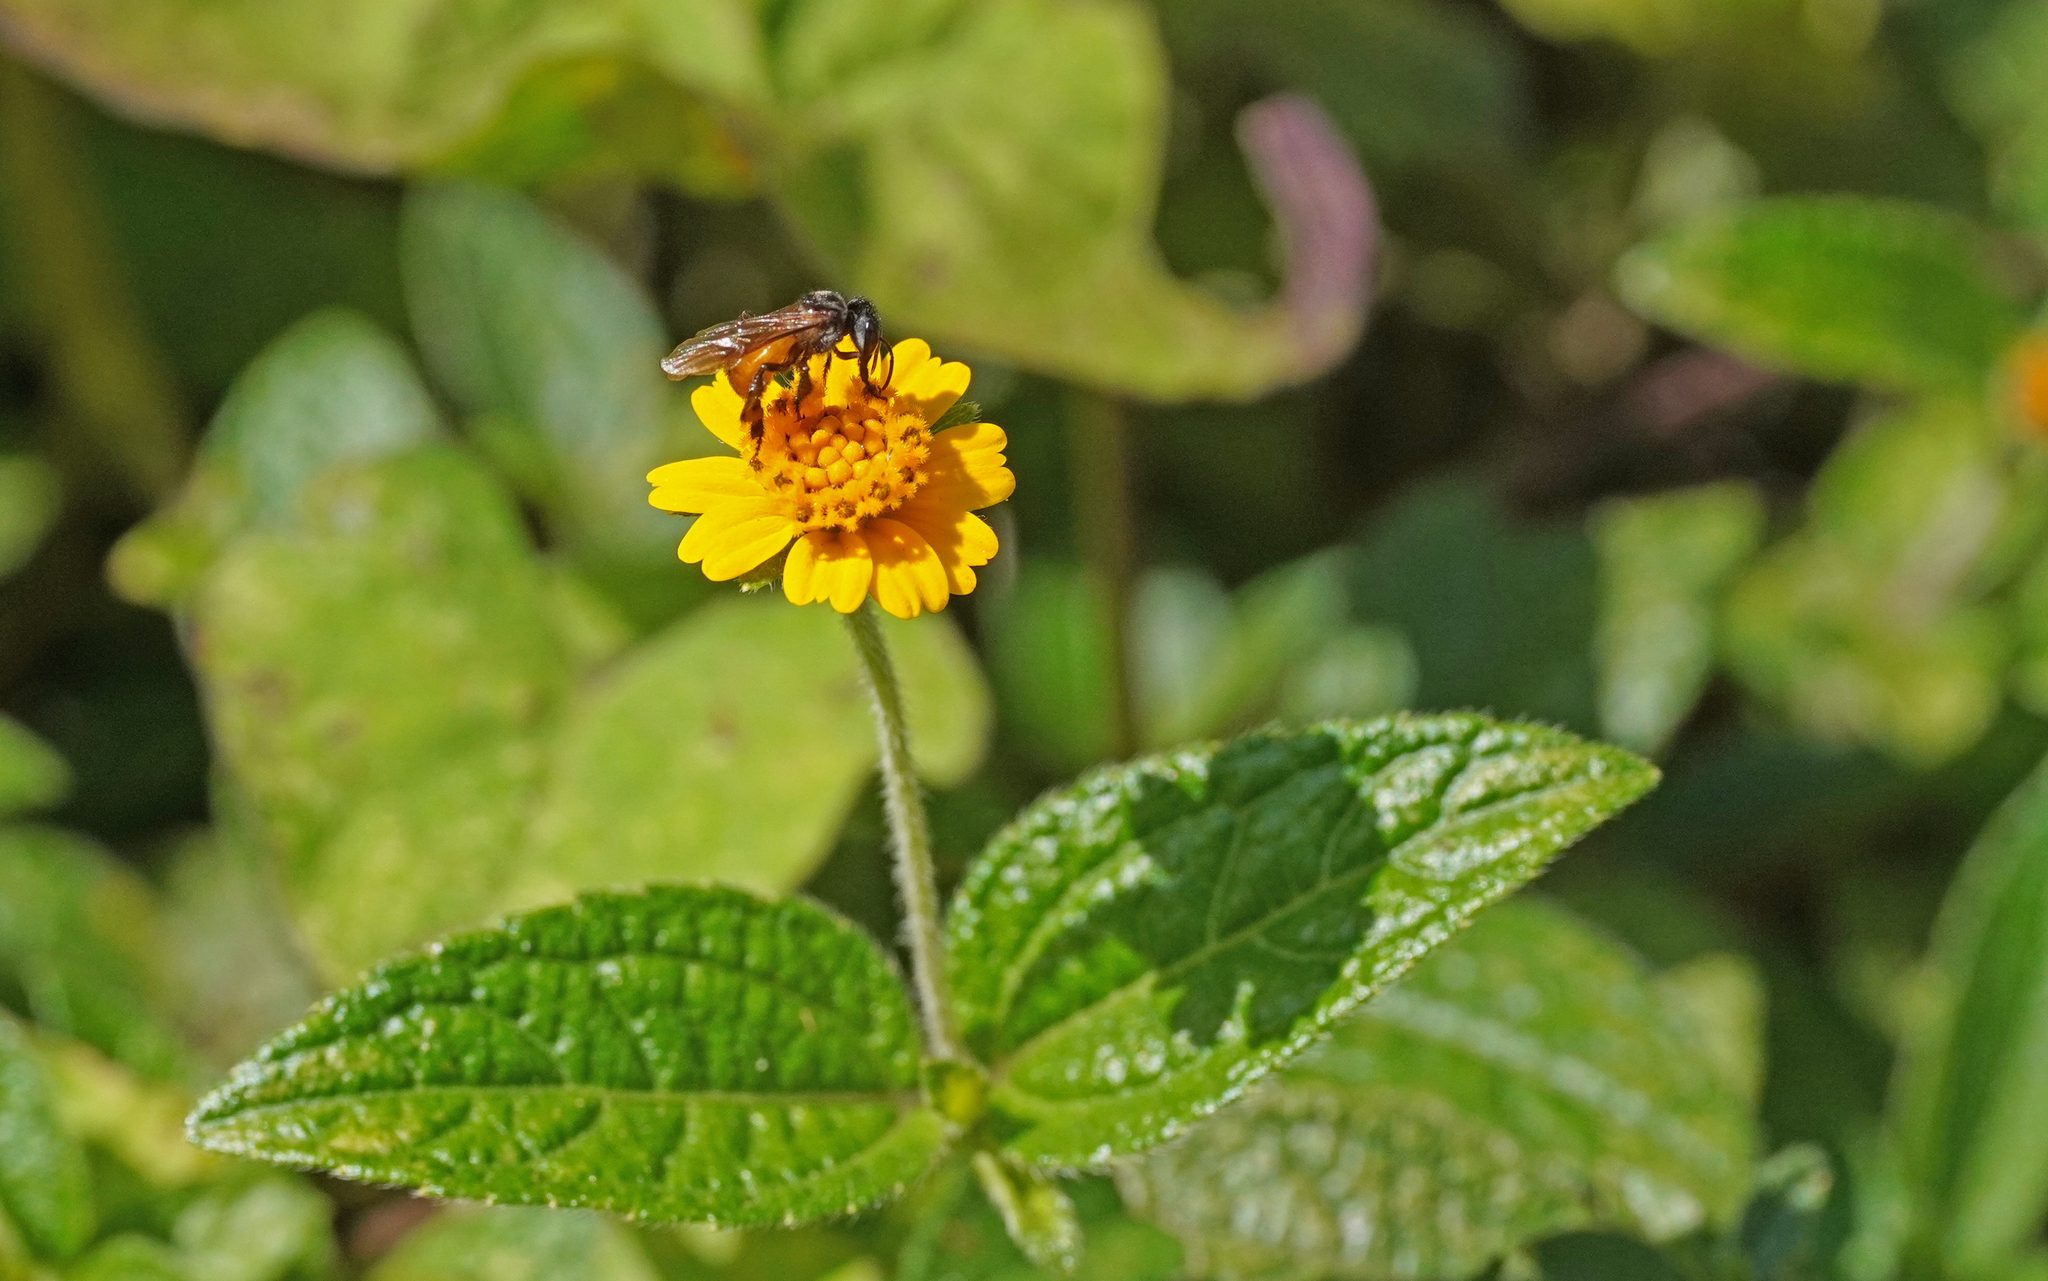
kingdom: Animalia
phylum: Arthropoda
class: Insecta
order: Hymenoptera
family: Apidae
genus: Trigona
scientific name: Trigona fulviventris
